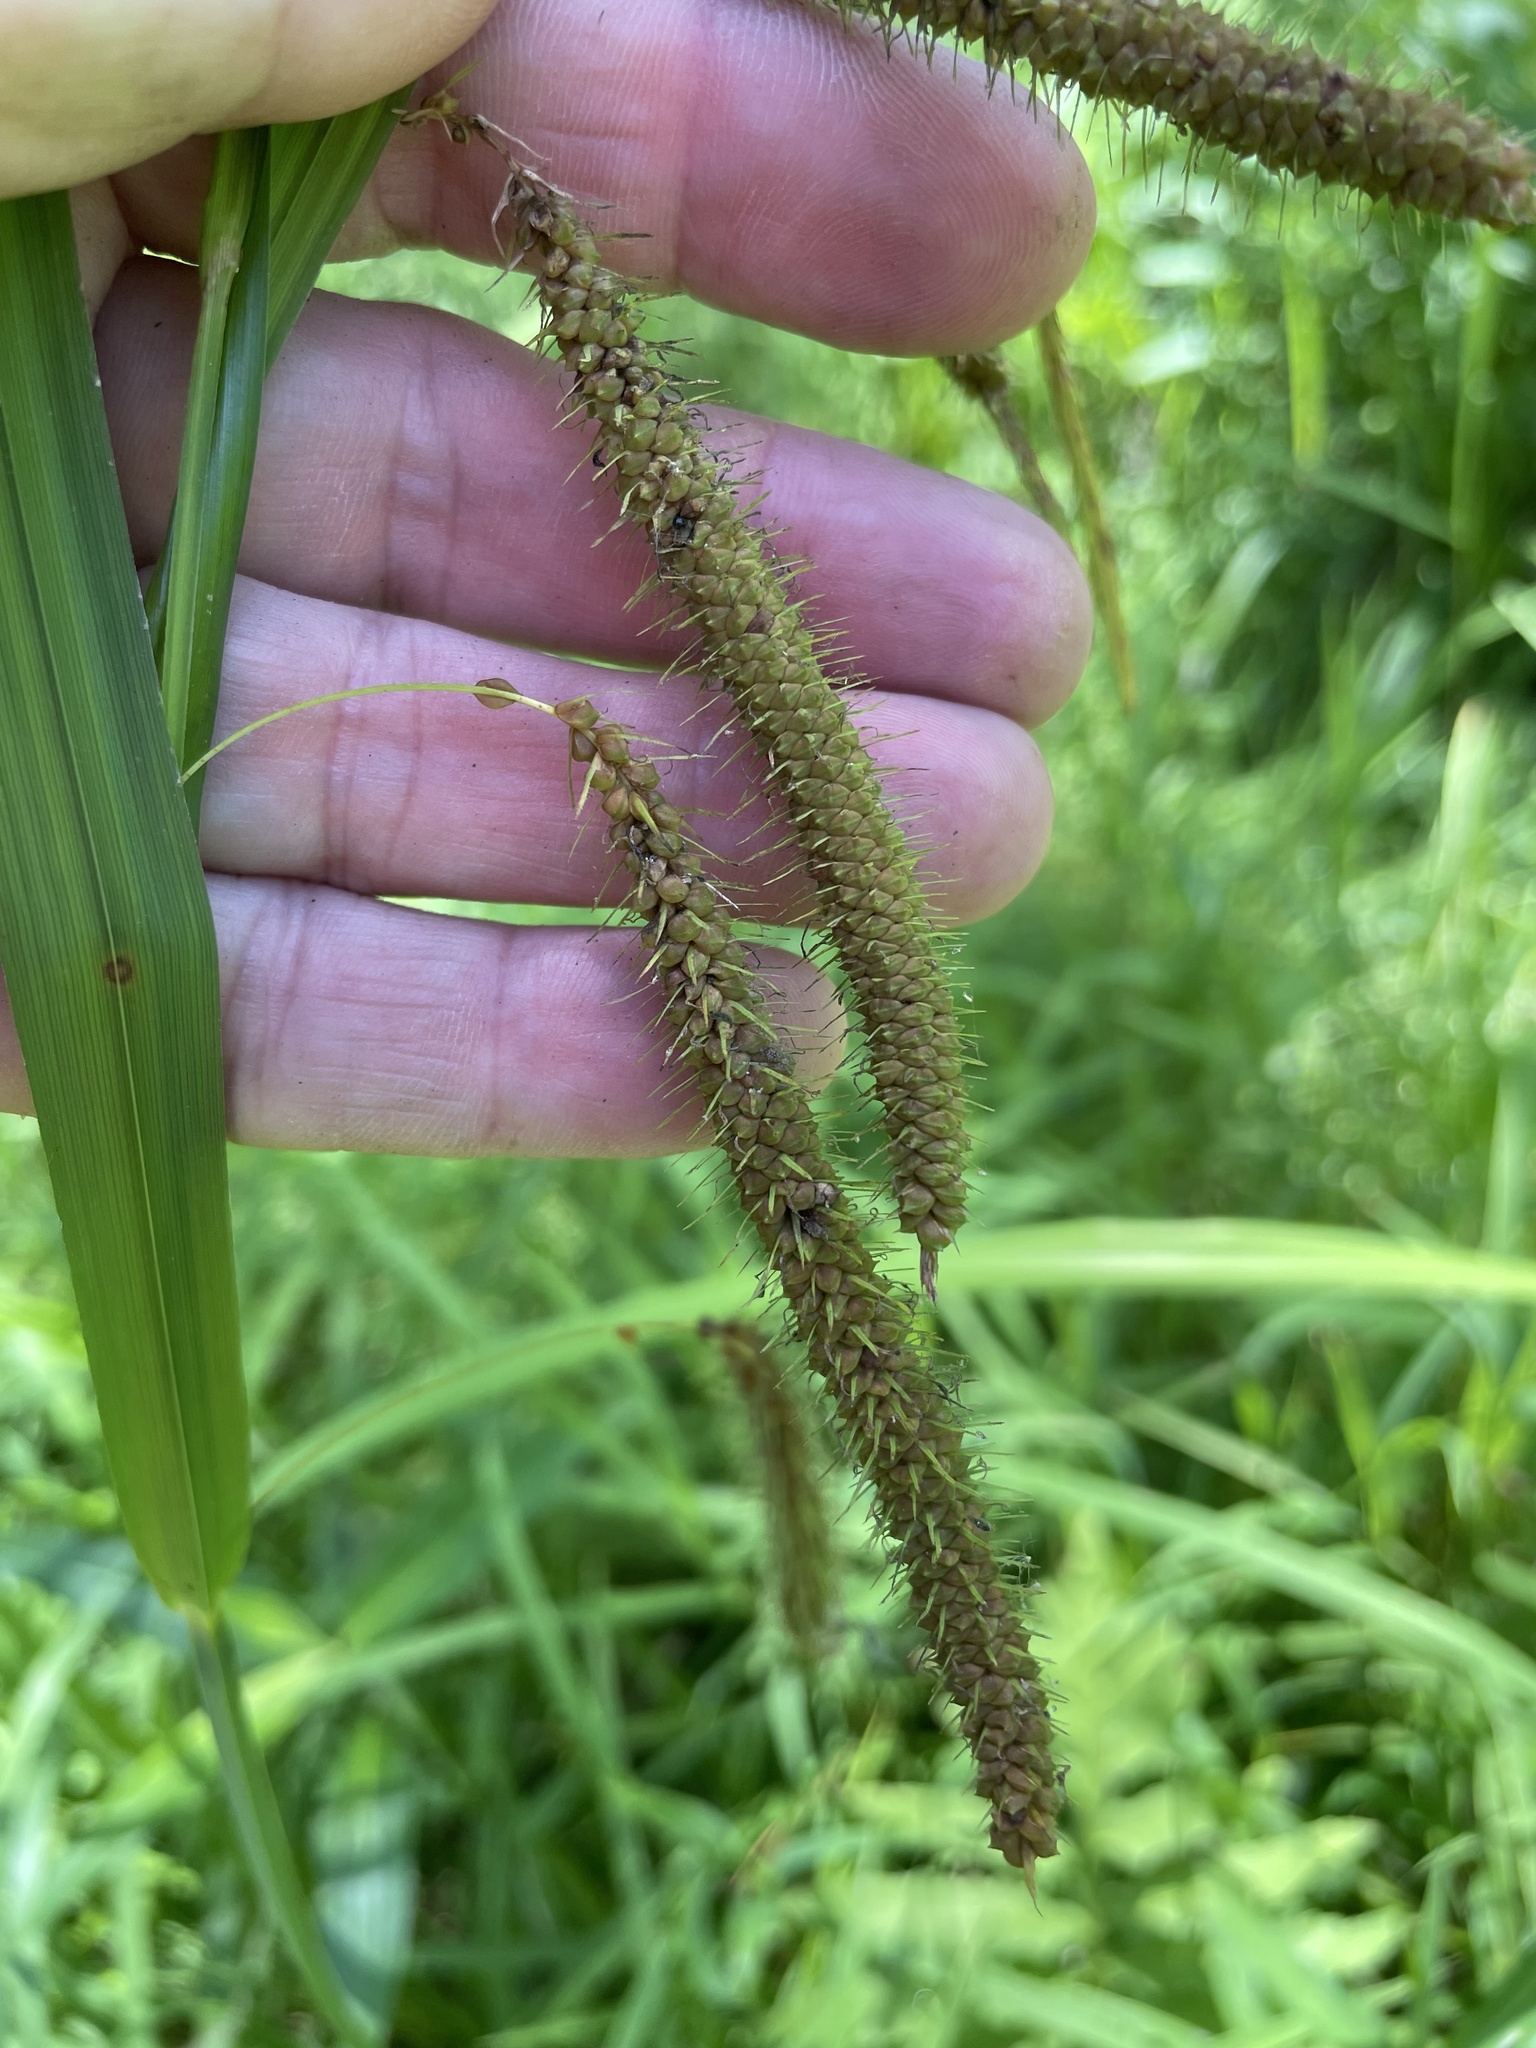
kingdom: Plantae
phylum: Tracheophyta
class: Liliopsida
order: Poales
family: Cyperaceae
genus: Carex
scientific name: Carex crinita
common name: Fringed sedge
